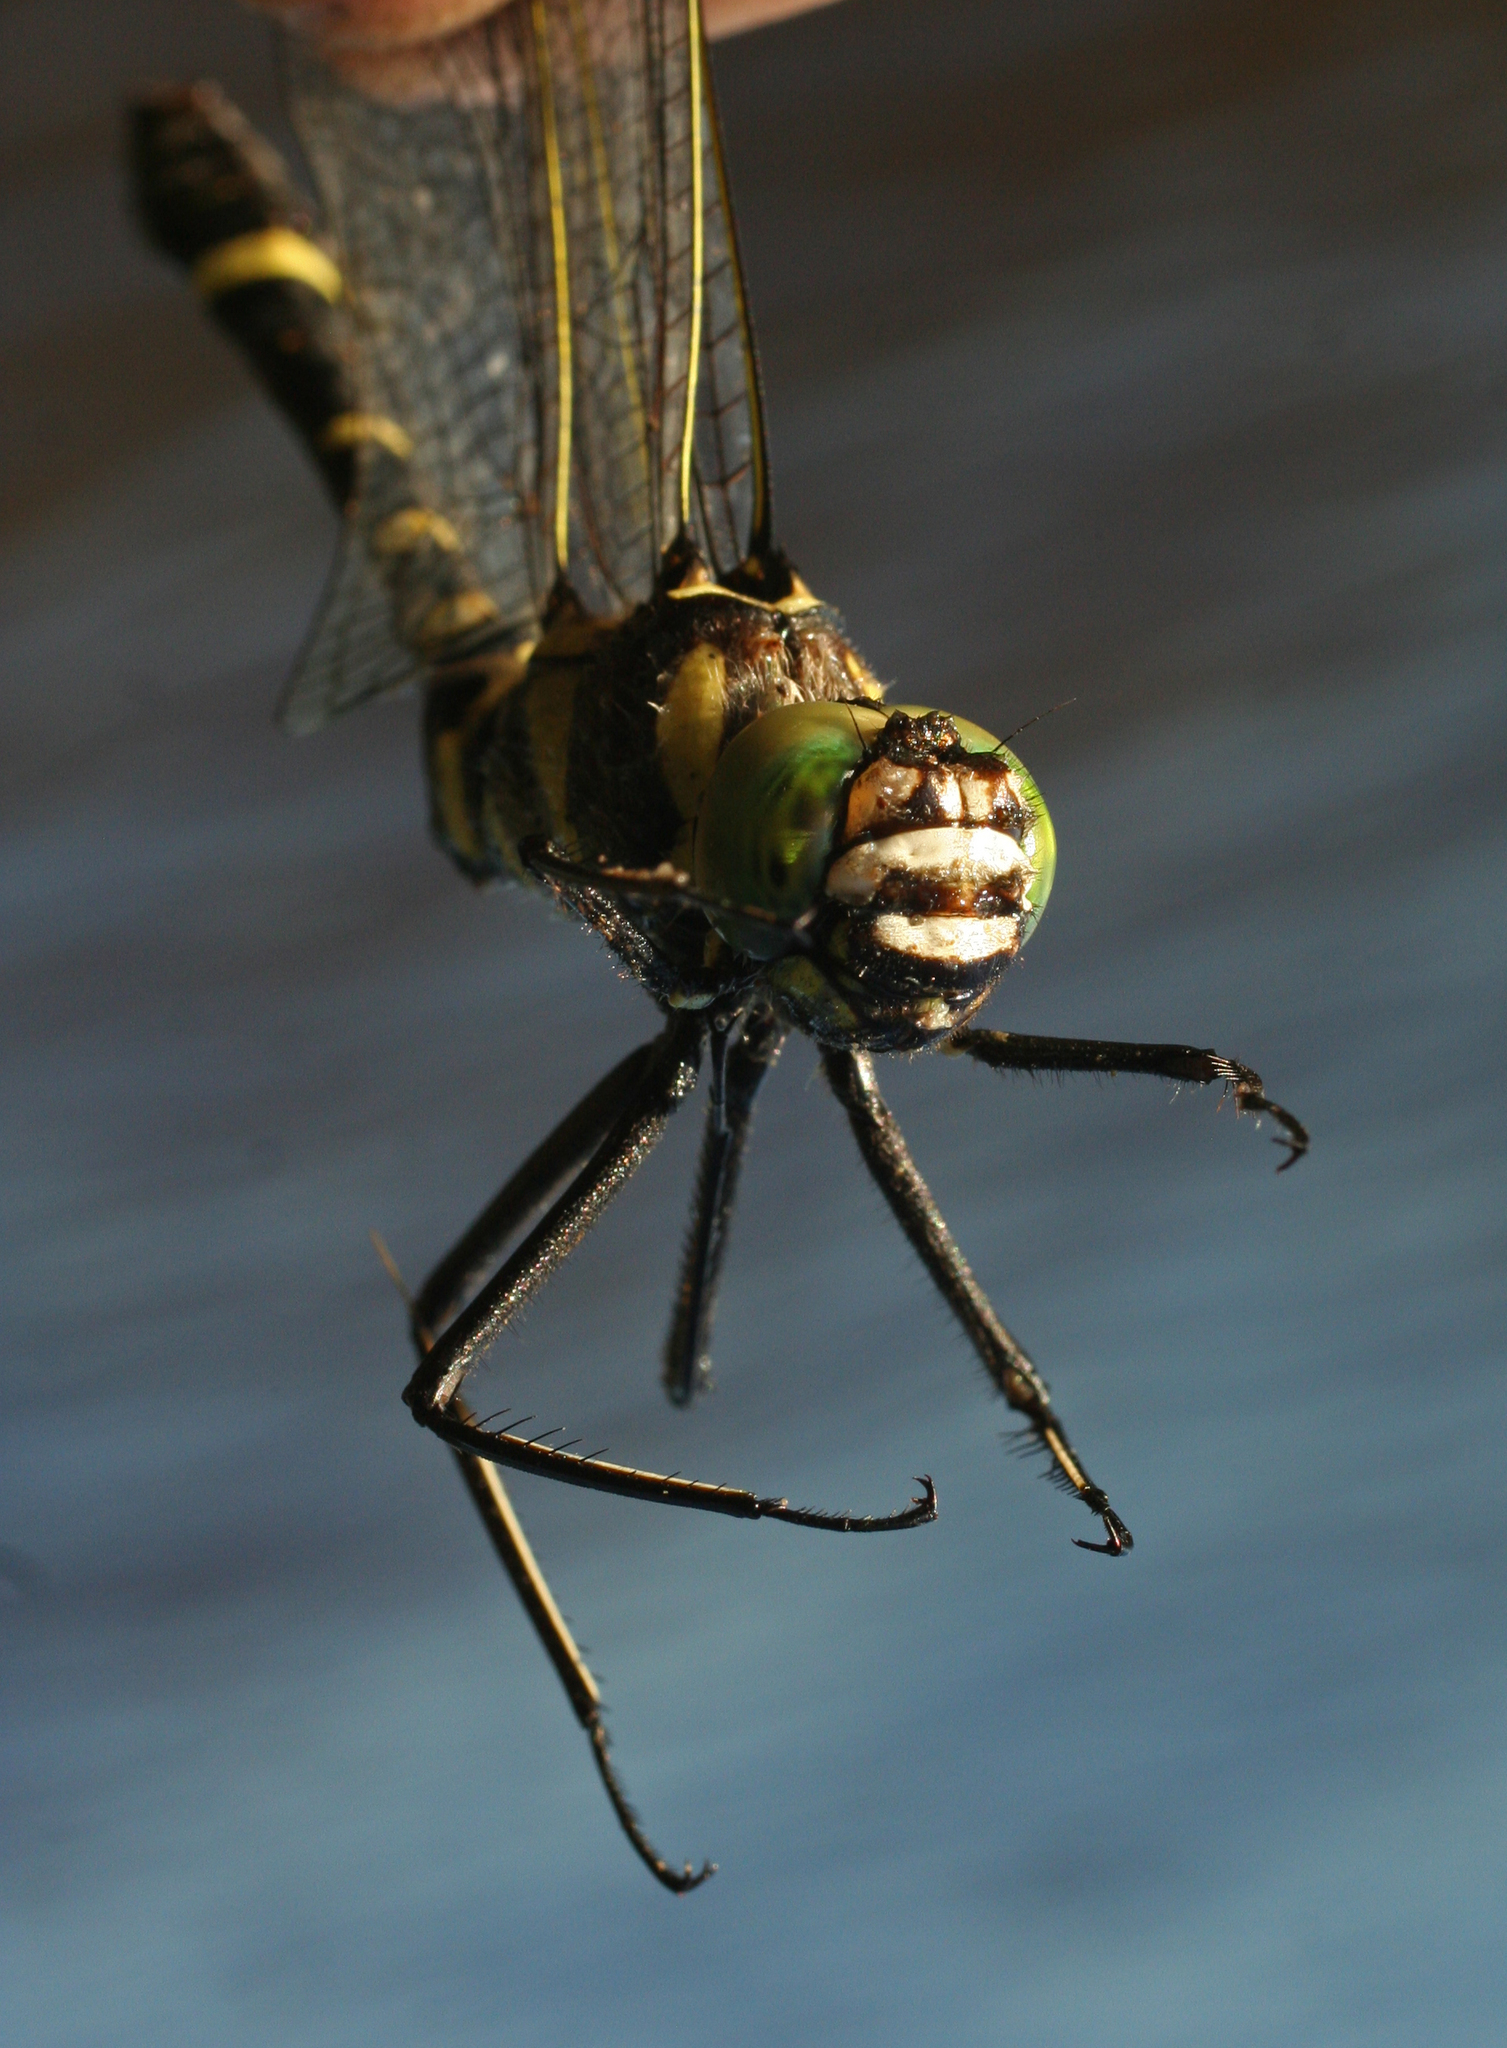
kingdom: Animalia
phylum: Arthropoda
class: Insecta
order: Odonata
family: Macromiidae
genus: Epophthalmia
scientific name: Epophthalmia elegans
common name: Regal pond cruiser
